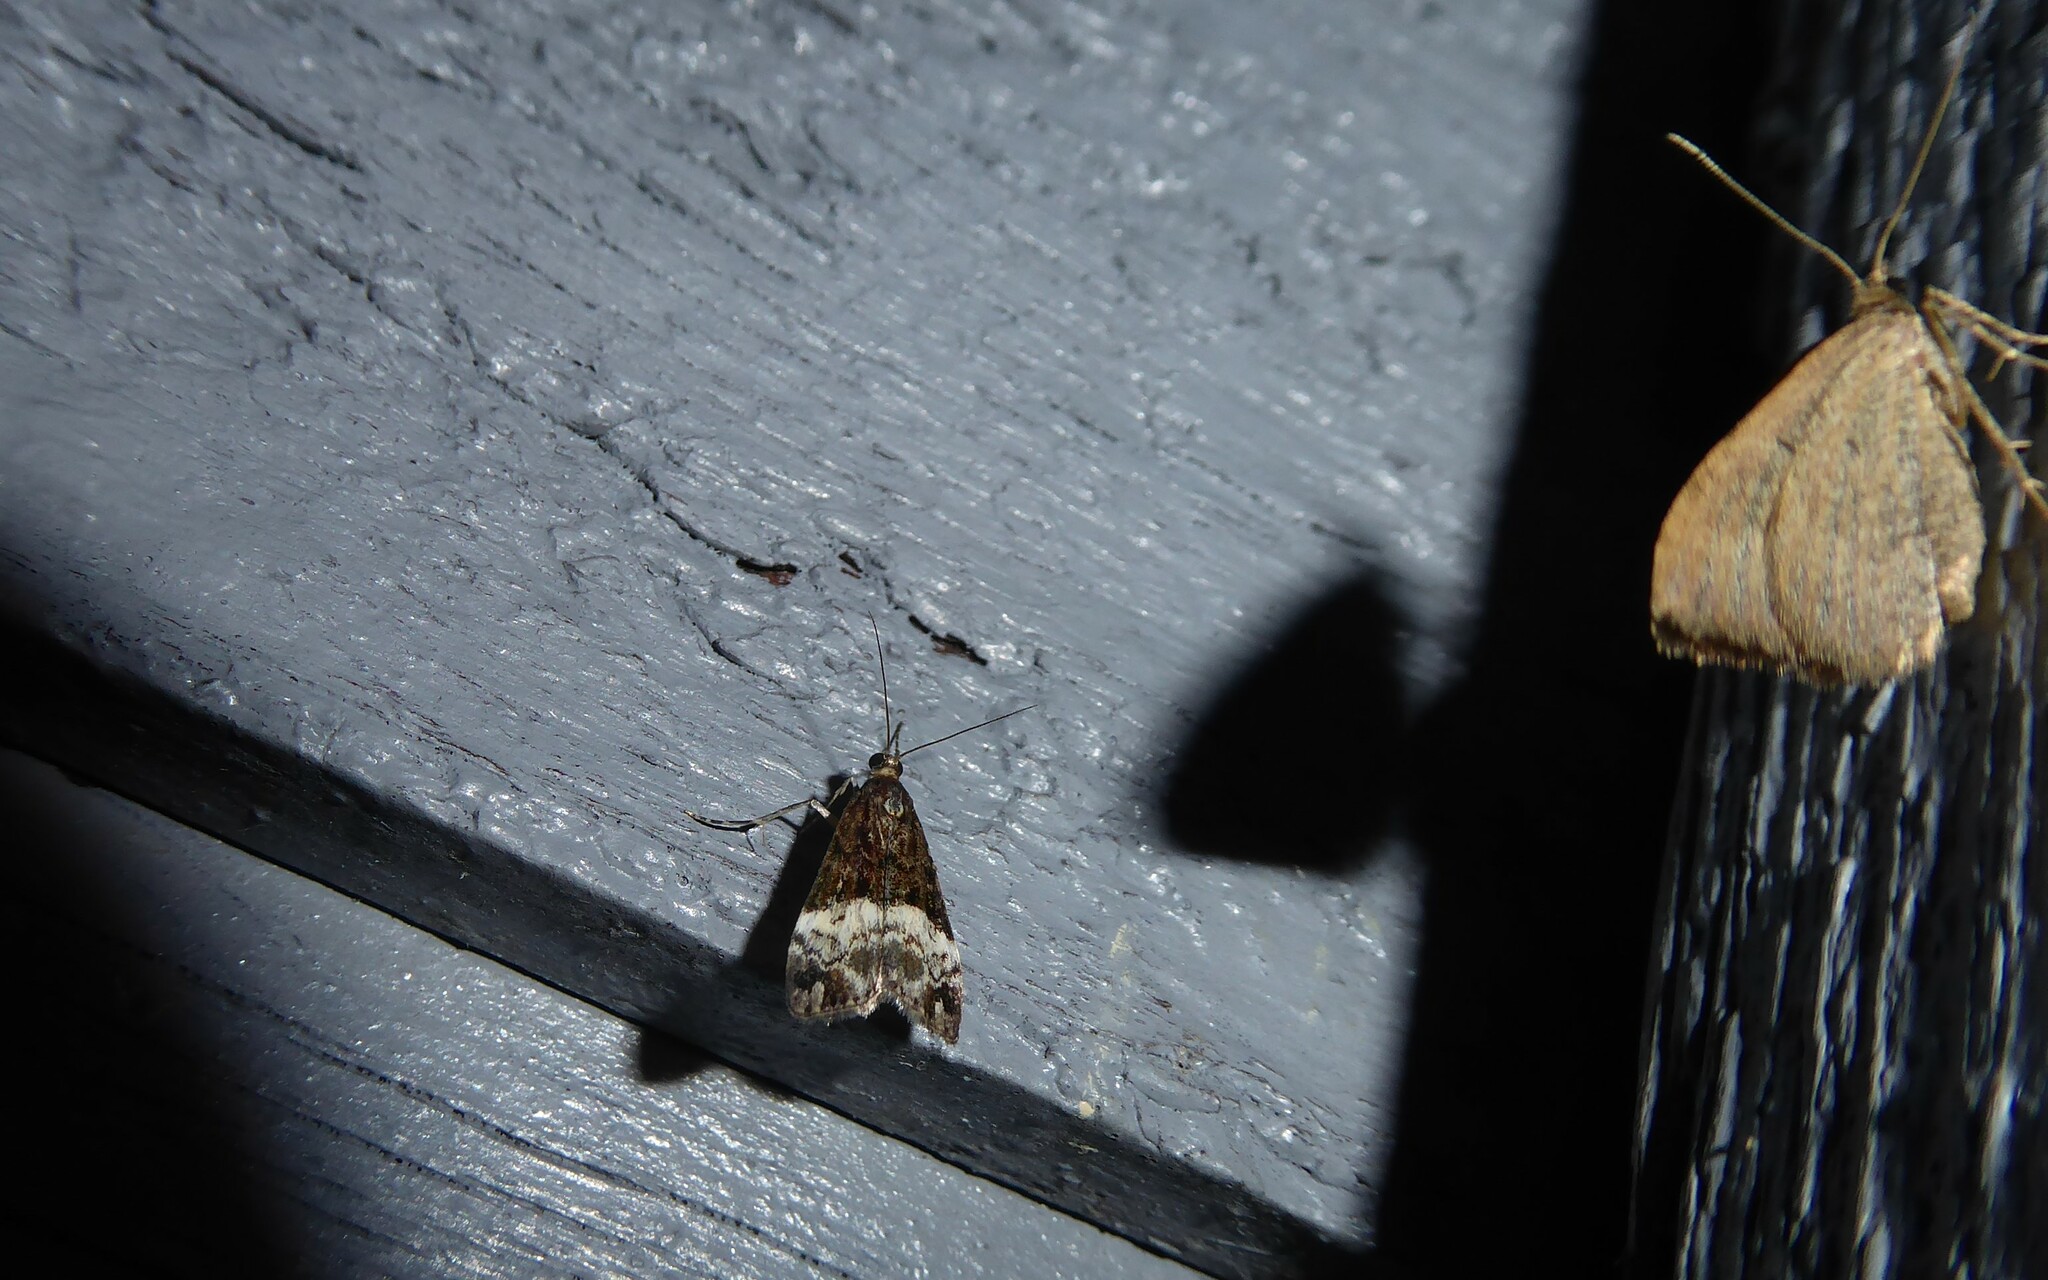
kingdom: Animalia
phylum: Arthropoda
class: Insecta
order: Lepidoptera
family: Crambidae
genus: Scoparia
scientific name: Scoparia minusculalis
